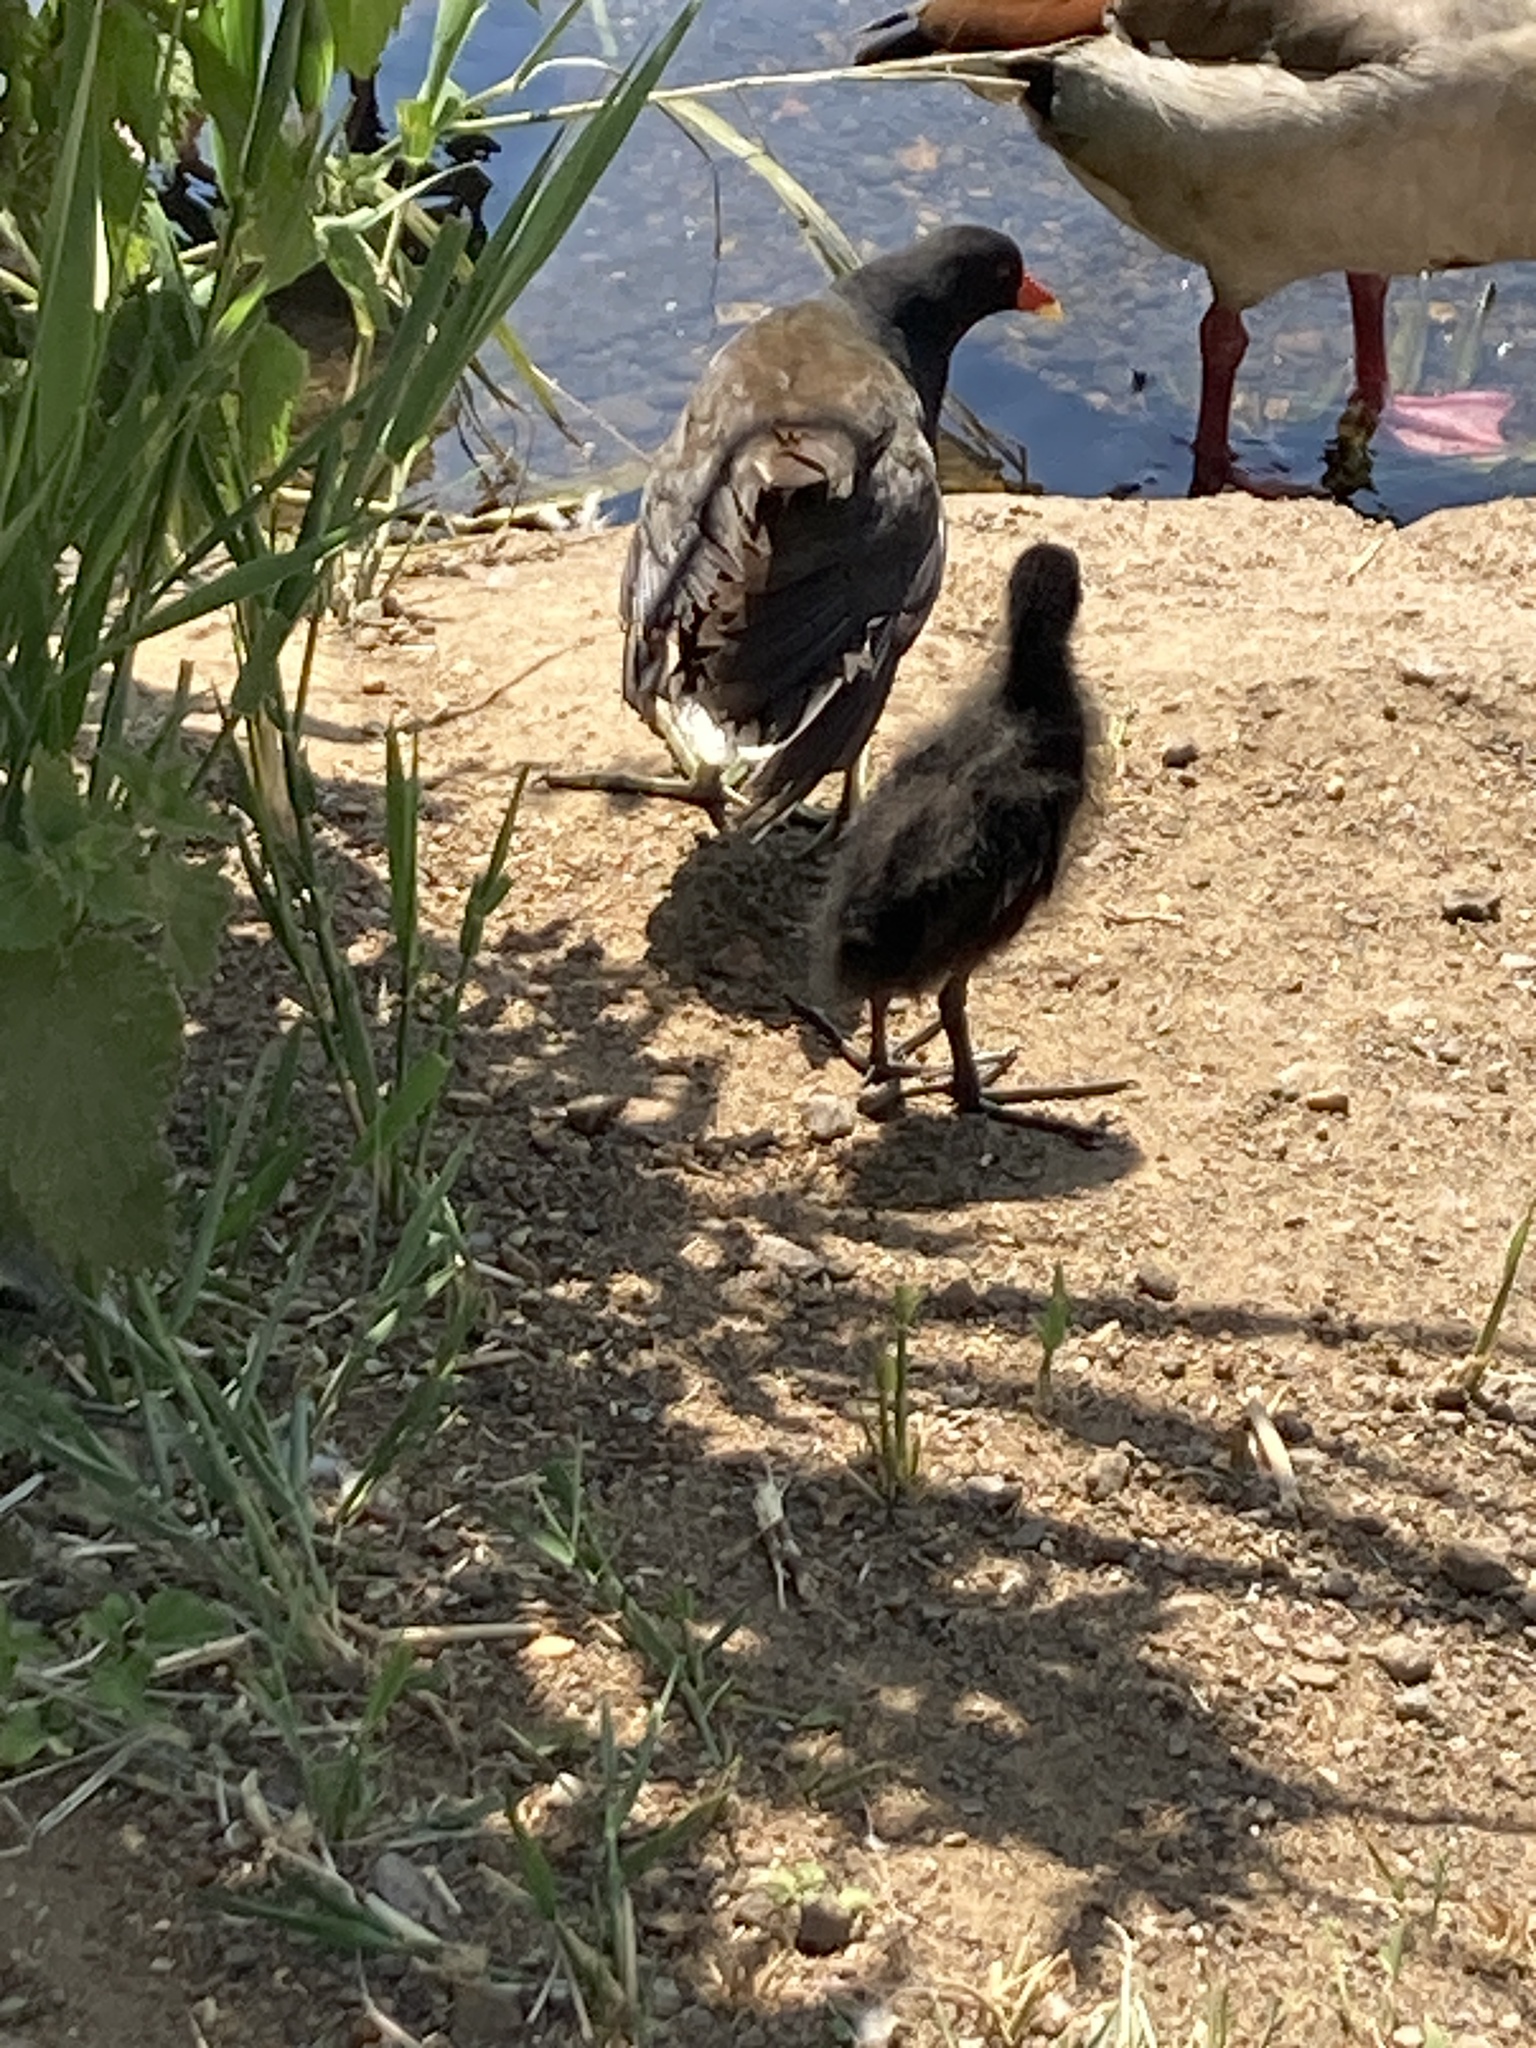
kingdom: Animalia
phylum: Chordata
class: Aves
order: Gruiformes
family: Rallidae
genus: Gallinula
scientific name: Gallinula chloropus
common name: Common moorhen
